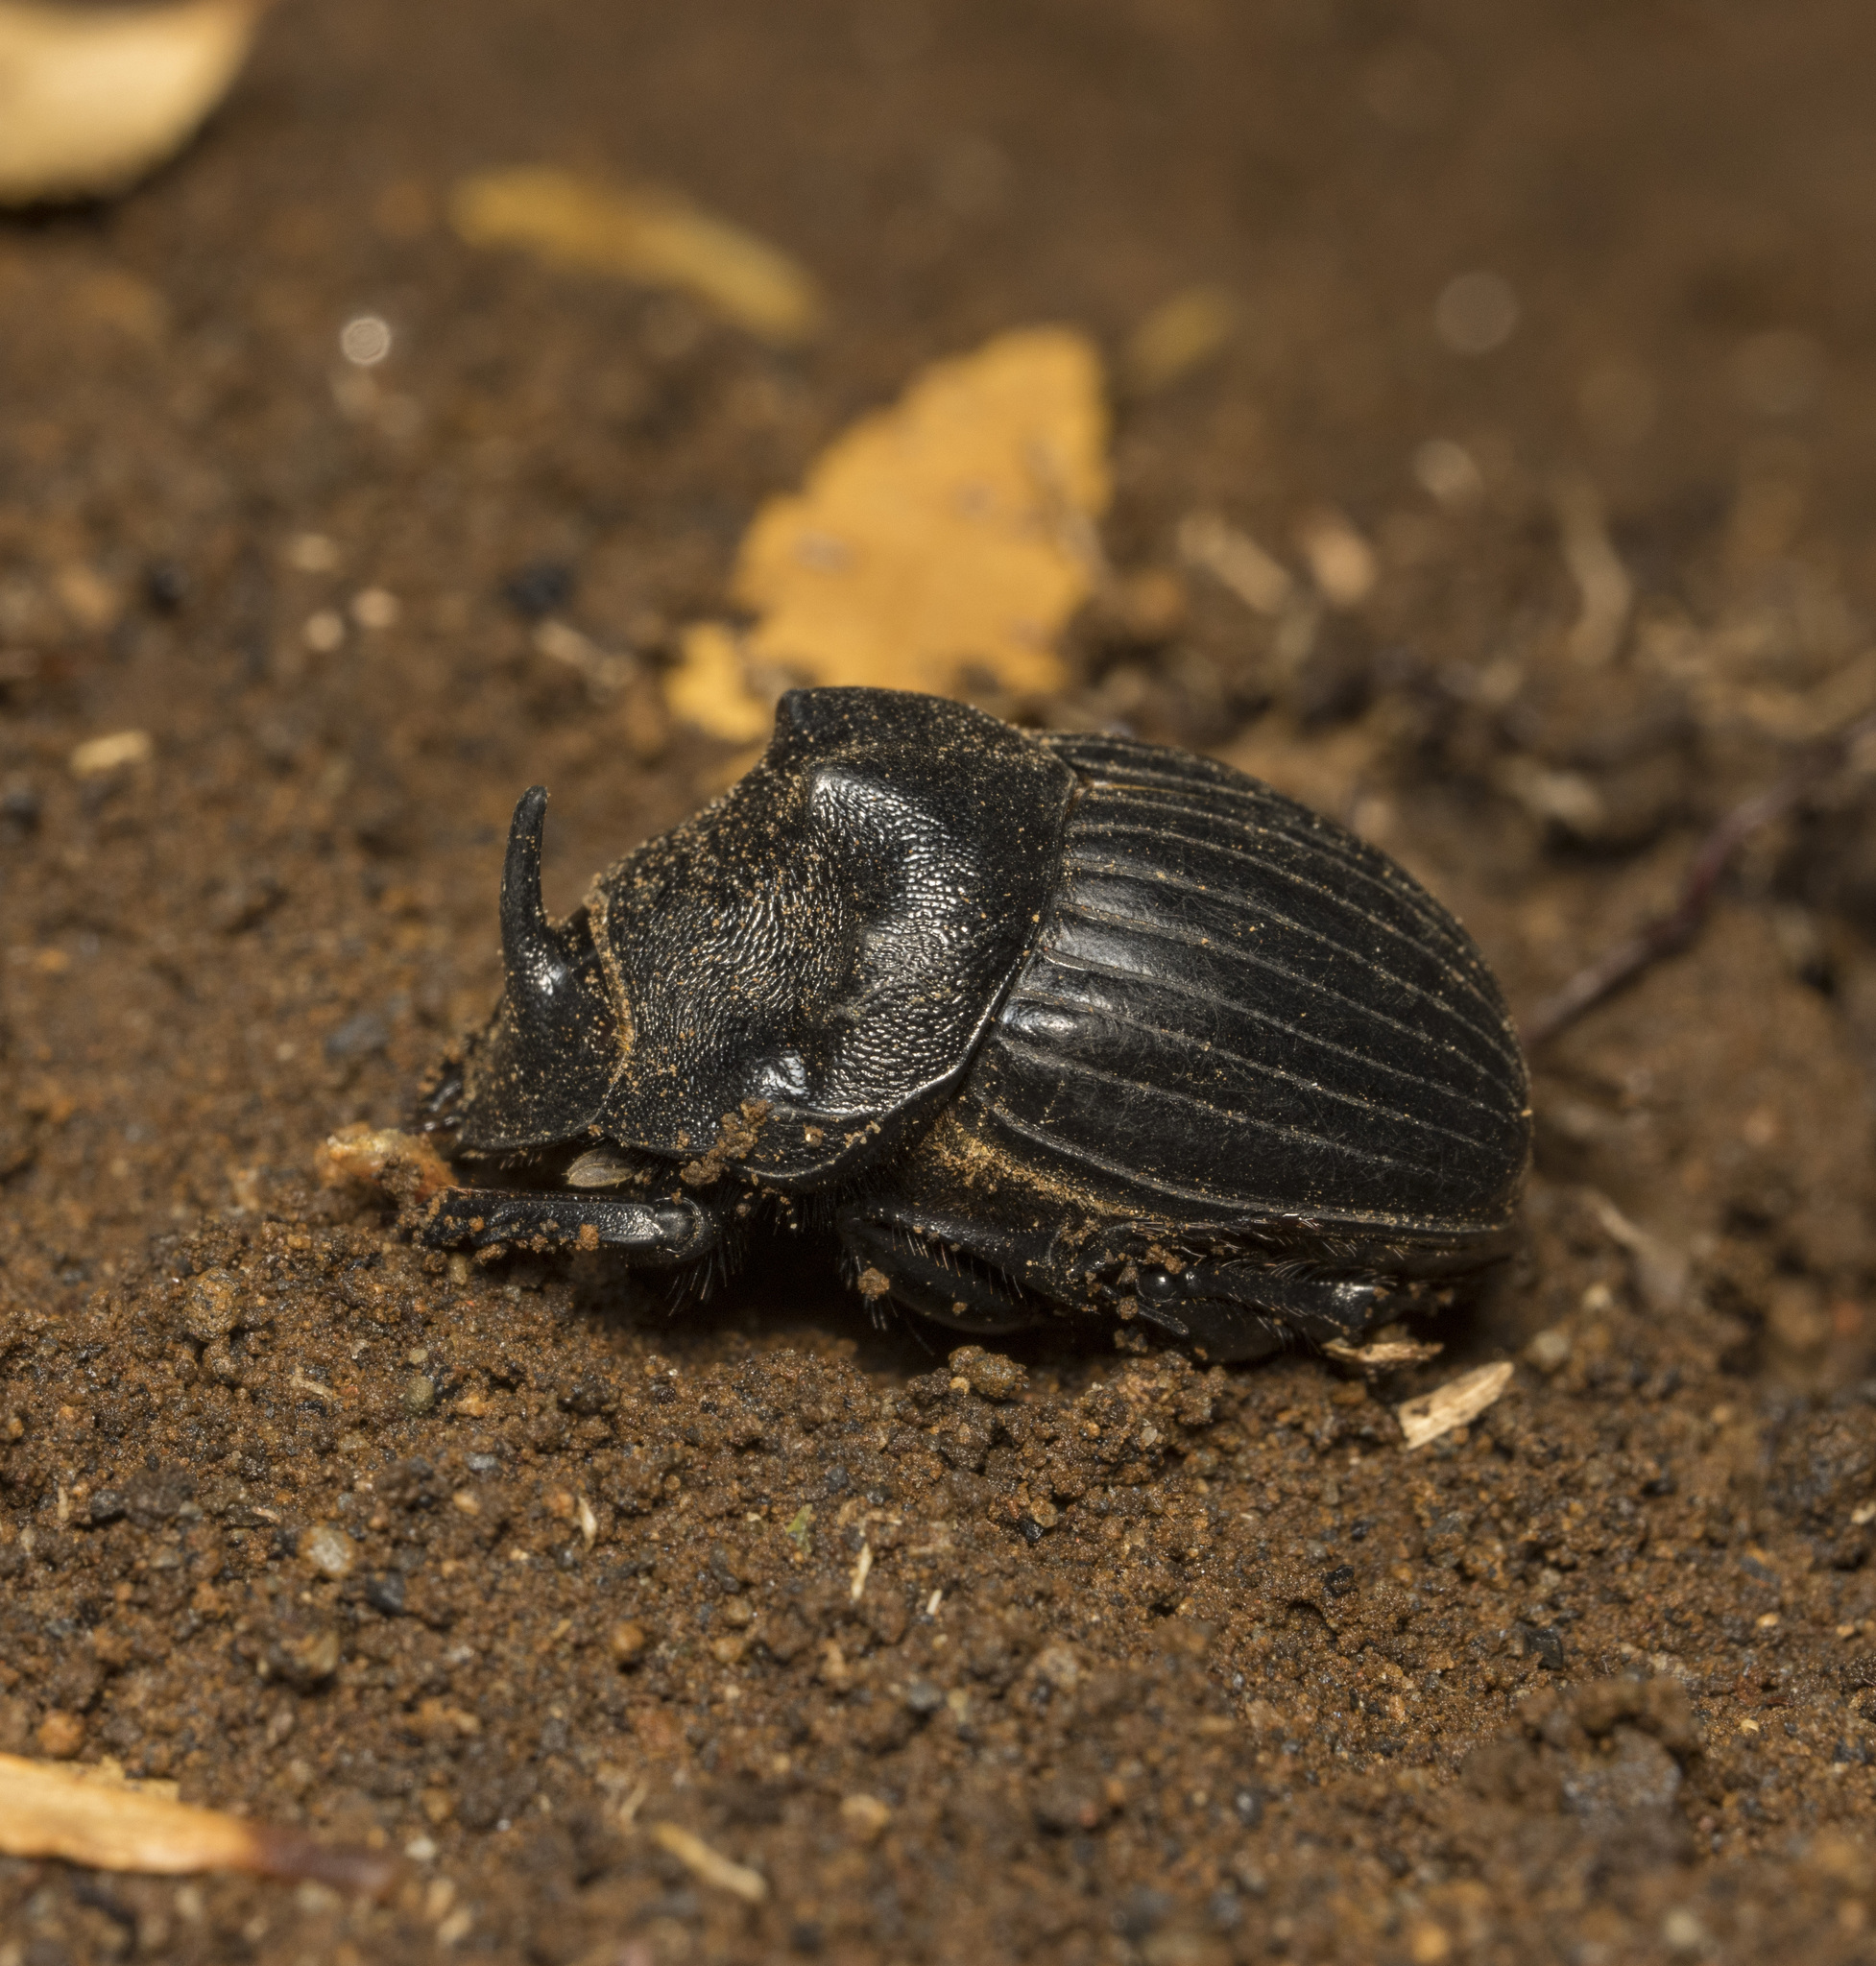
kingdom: Animalia
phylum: Arthropoda
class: Insecta
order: Coleoptera
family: Scarabaeidae
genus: Homocopris
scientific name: Homocopris torulosus
